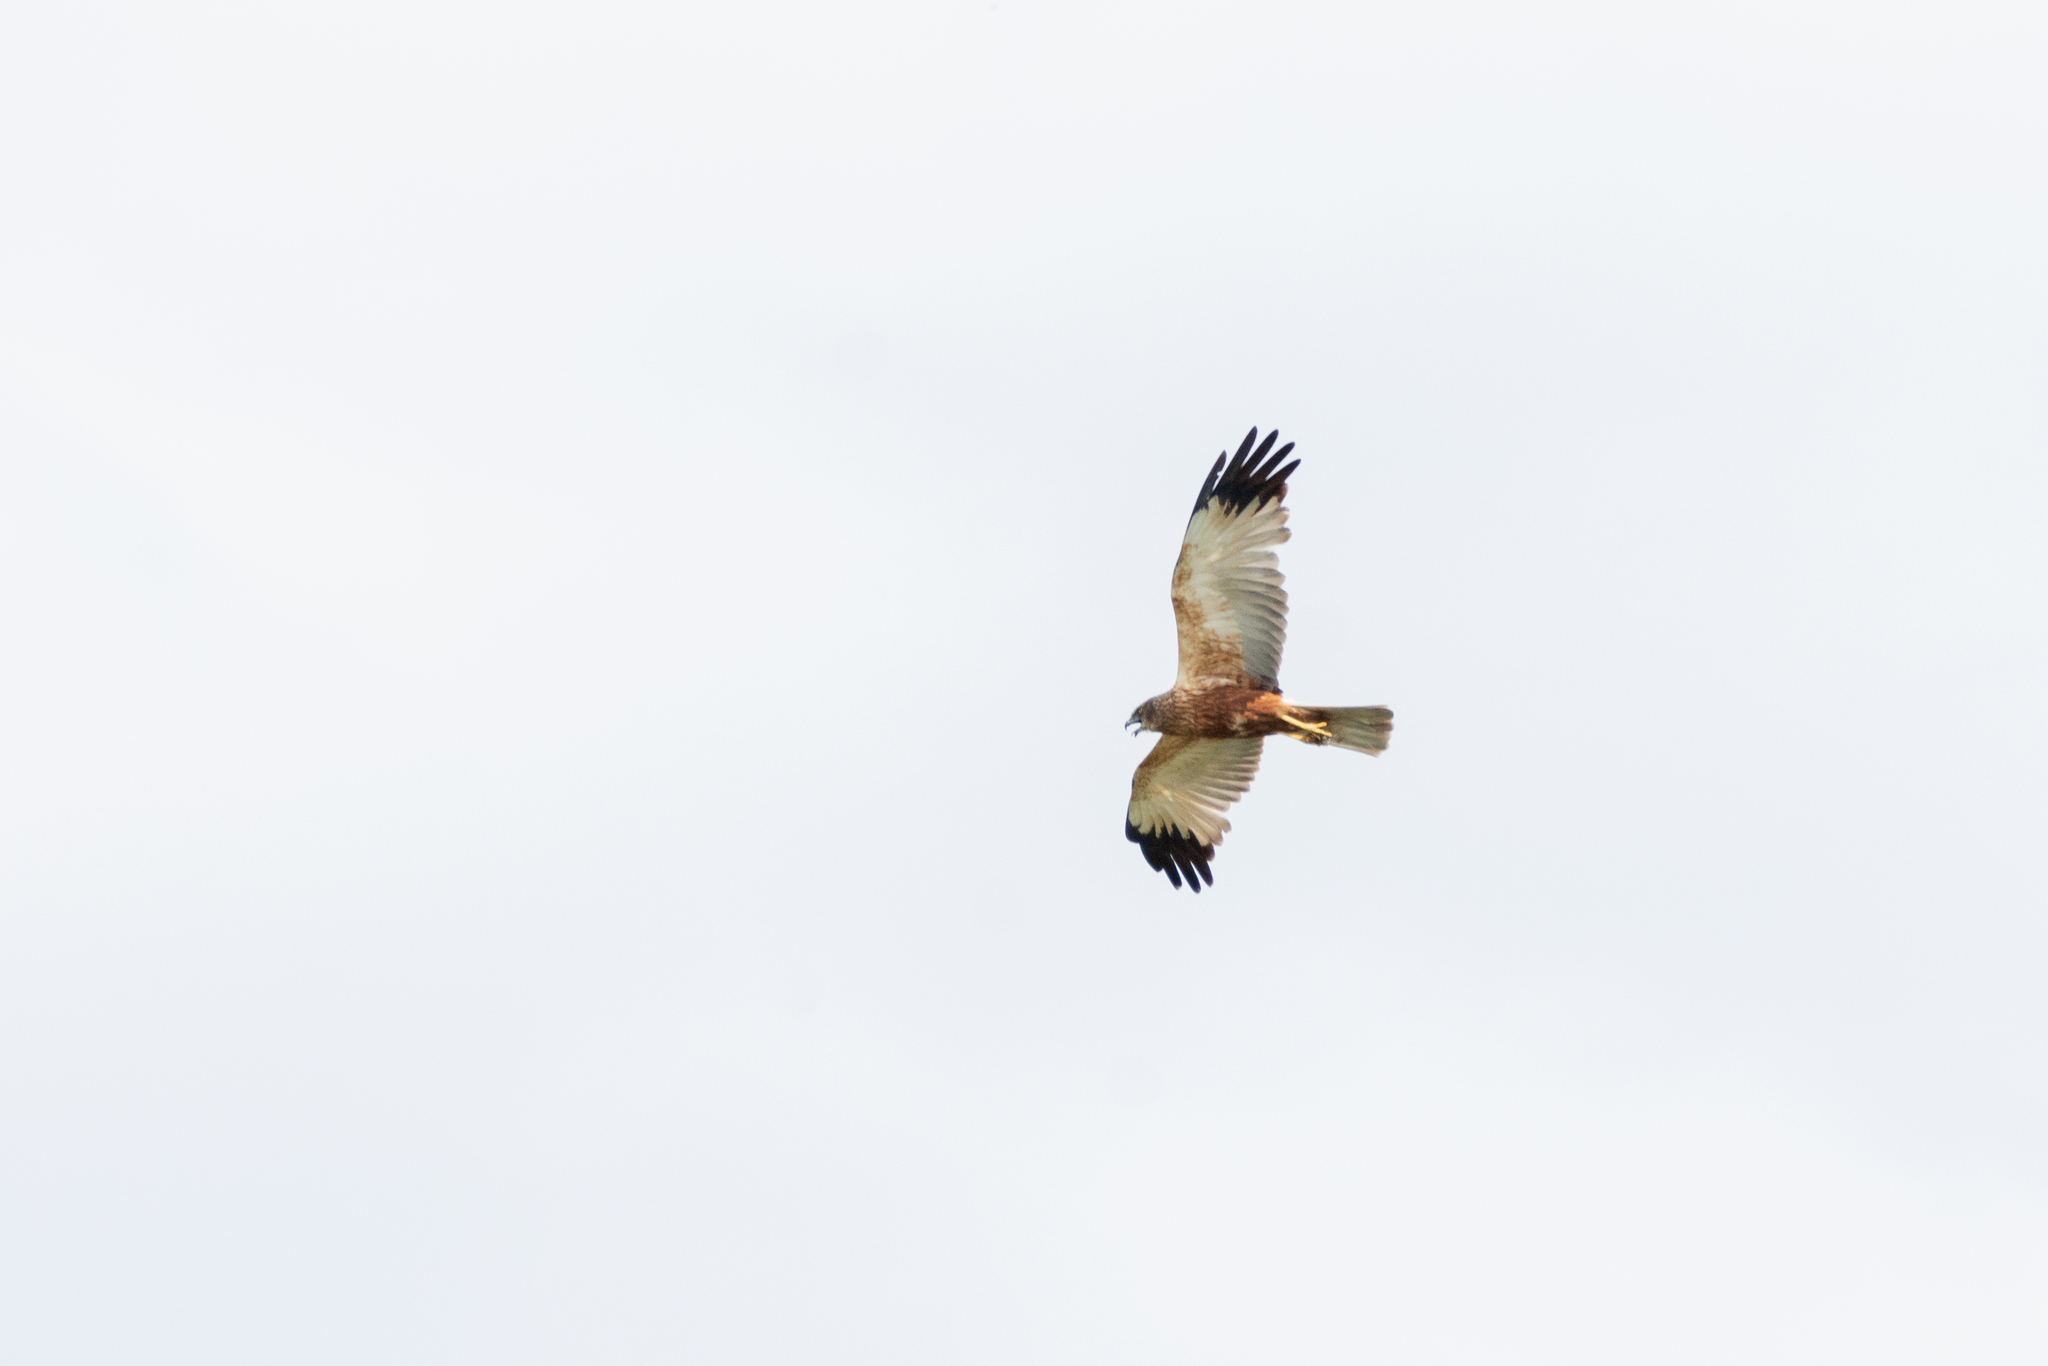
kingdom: Animalia
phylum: Chordata
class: Aves
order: Accipitriformes
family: Accipitridae
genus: Circus
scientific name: Circus aeruginosus
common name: Western marsh harrier
